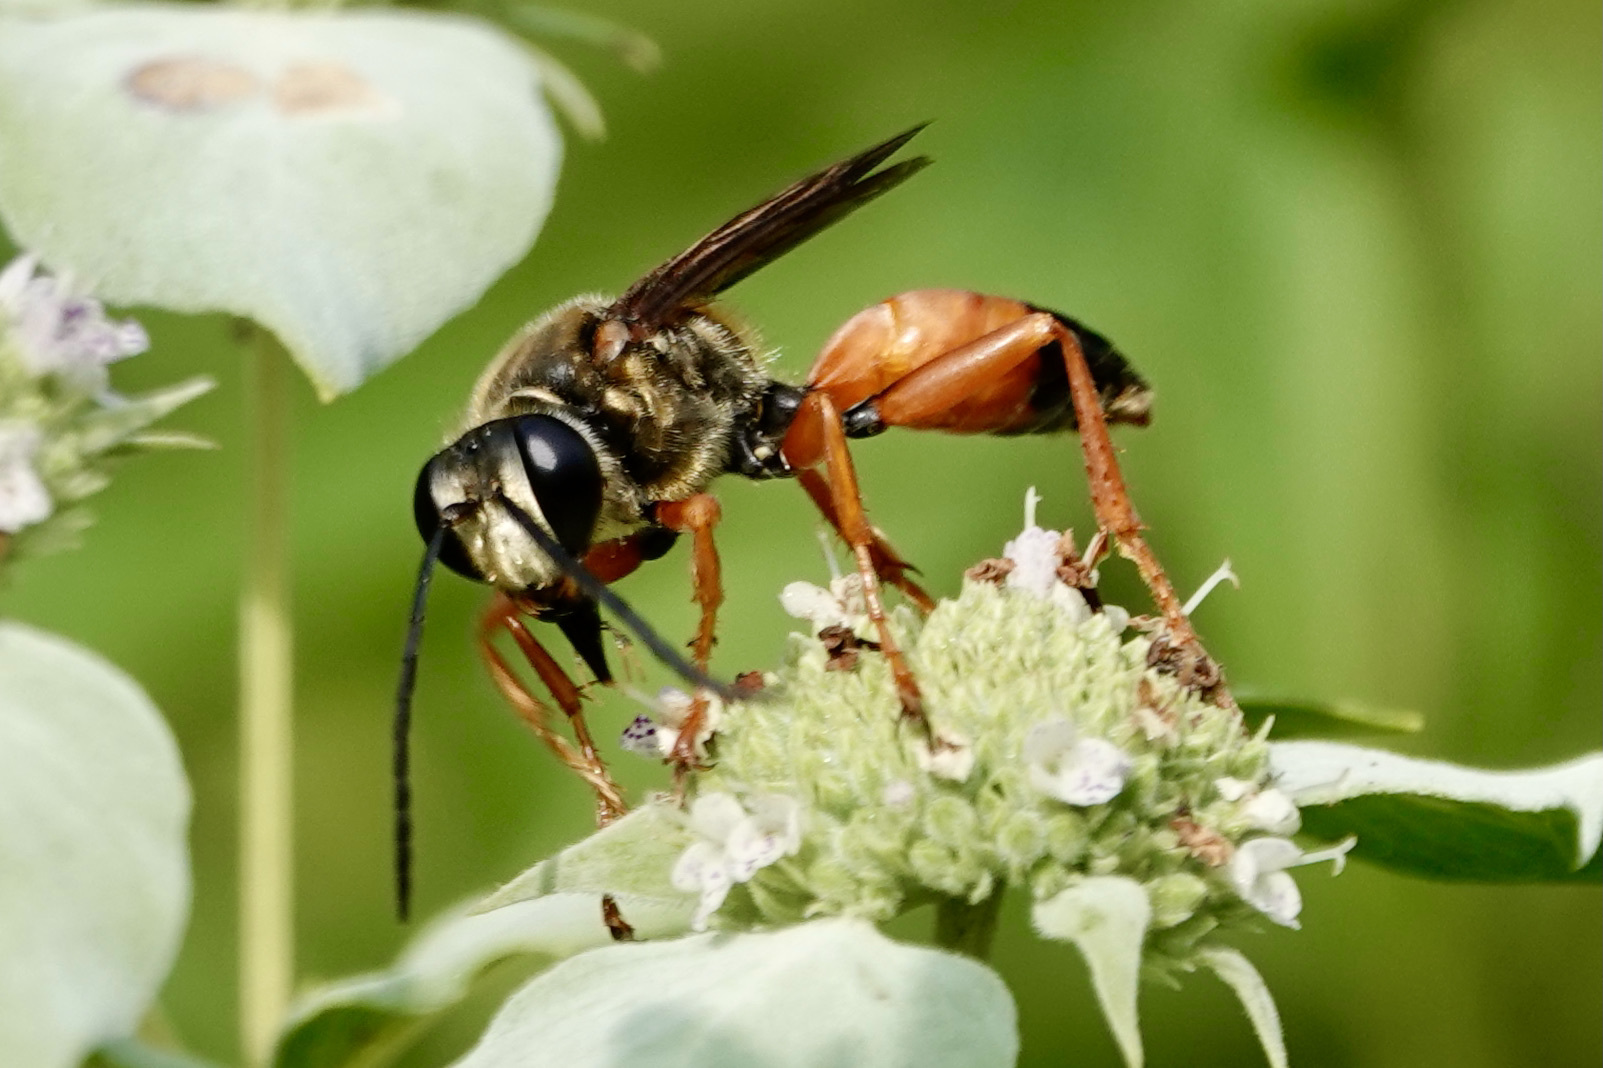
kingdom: Animalia
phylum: Arthropoda
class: Insecta
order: Hymenoptera
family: Sphecidae
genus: Sphex
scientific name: Sphex ichneumoneus
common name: Great golden digger wasp
